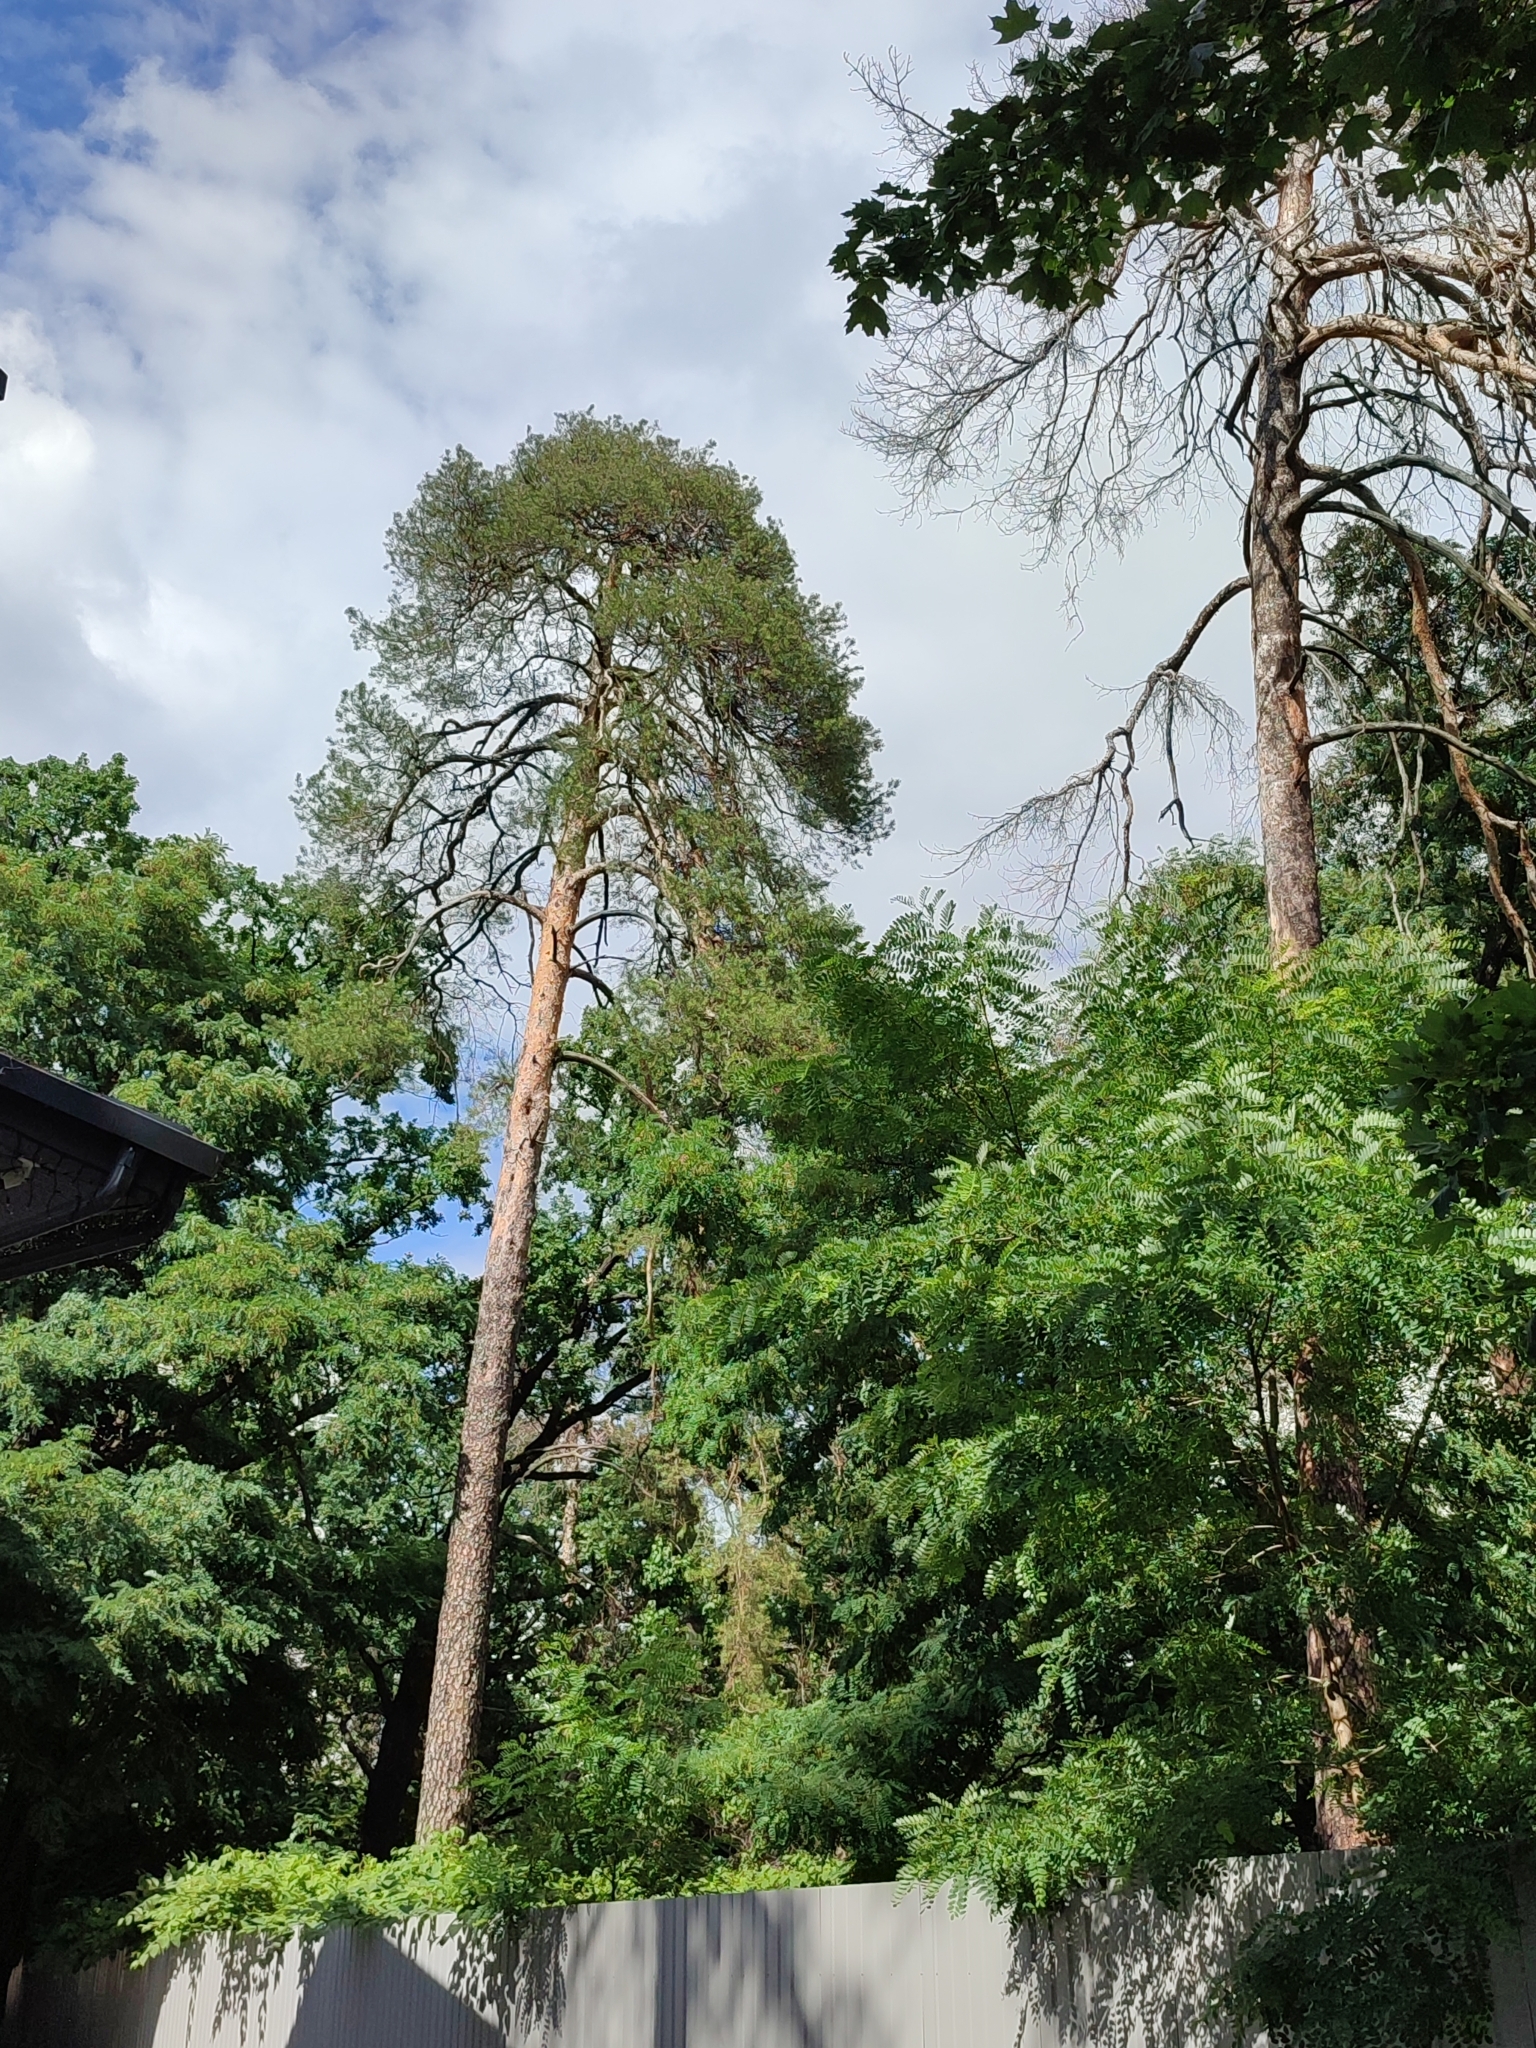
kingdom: Plantae
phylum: Tracheophyta
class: Pinopsida
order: Pinales
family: Pinaceae
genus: Pinus
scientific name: Pinus sylvestris
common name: Scots pine
